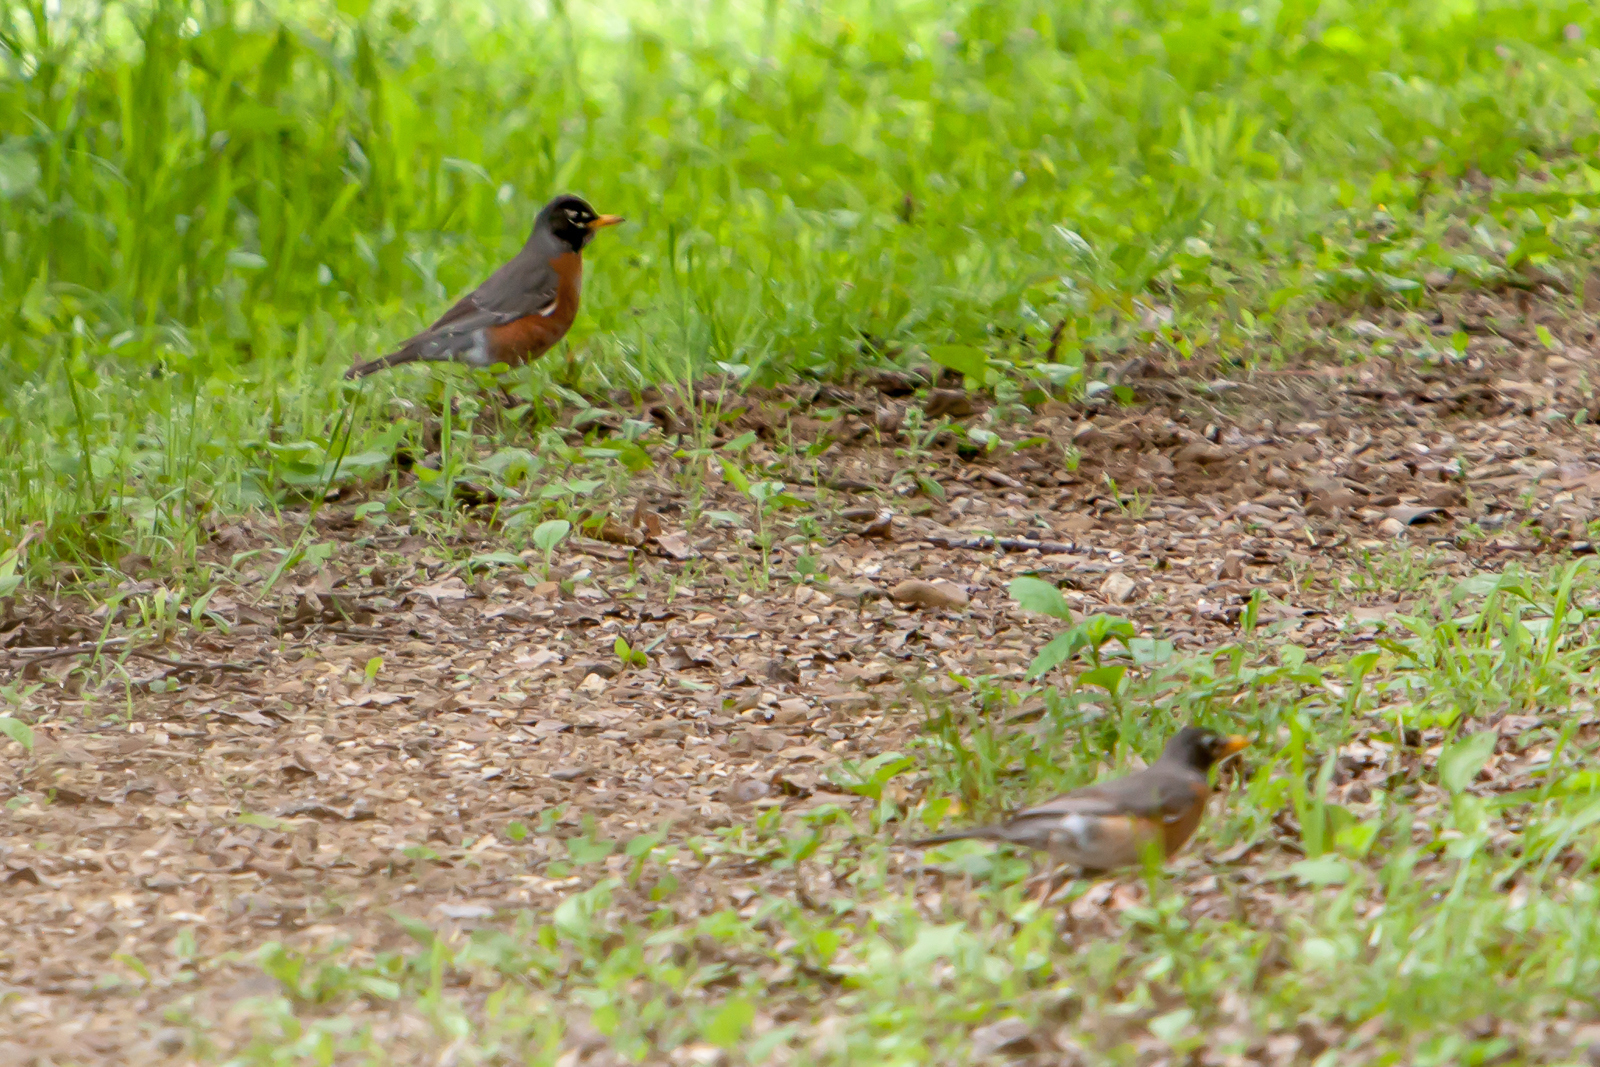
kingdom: Animalia
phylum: Chordata
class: Aves
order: Passeriformes
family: Turdidae
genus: Turdus
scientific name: Turdus migratorius
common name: American robin
